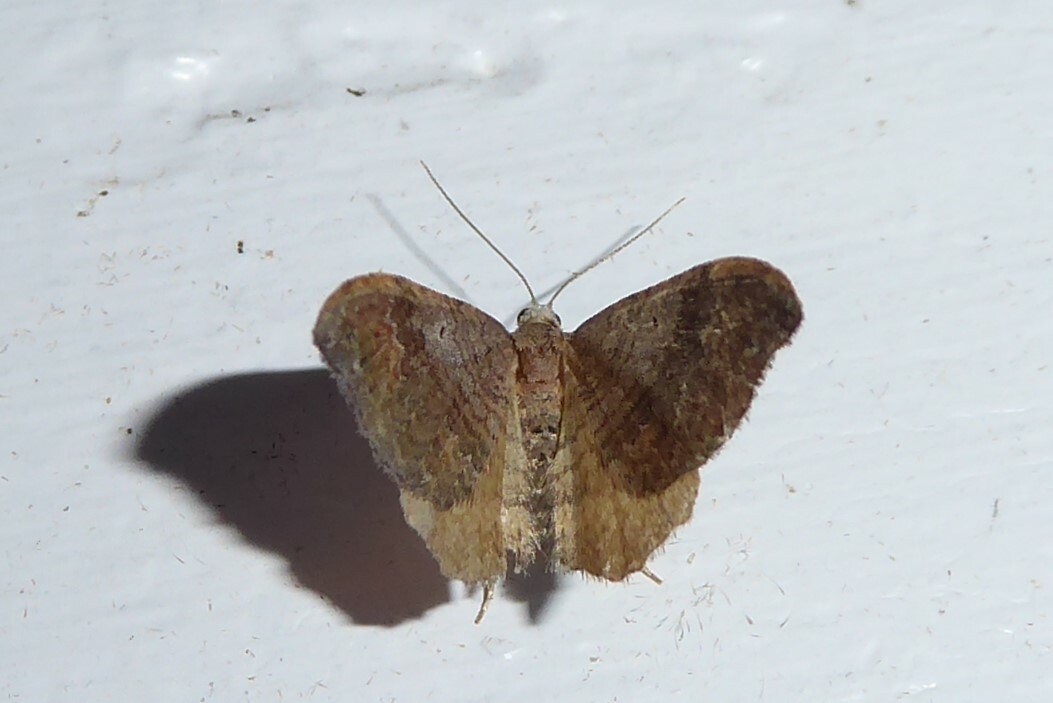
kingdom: Animalia
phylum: Arthropoda
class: Insecta
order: Lepidoptera
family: Geometridae
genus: Homodotis
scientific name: Homodotis megaspilata
